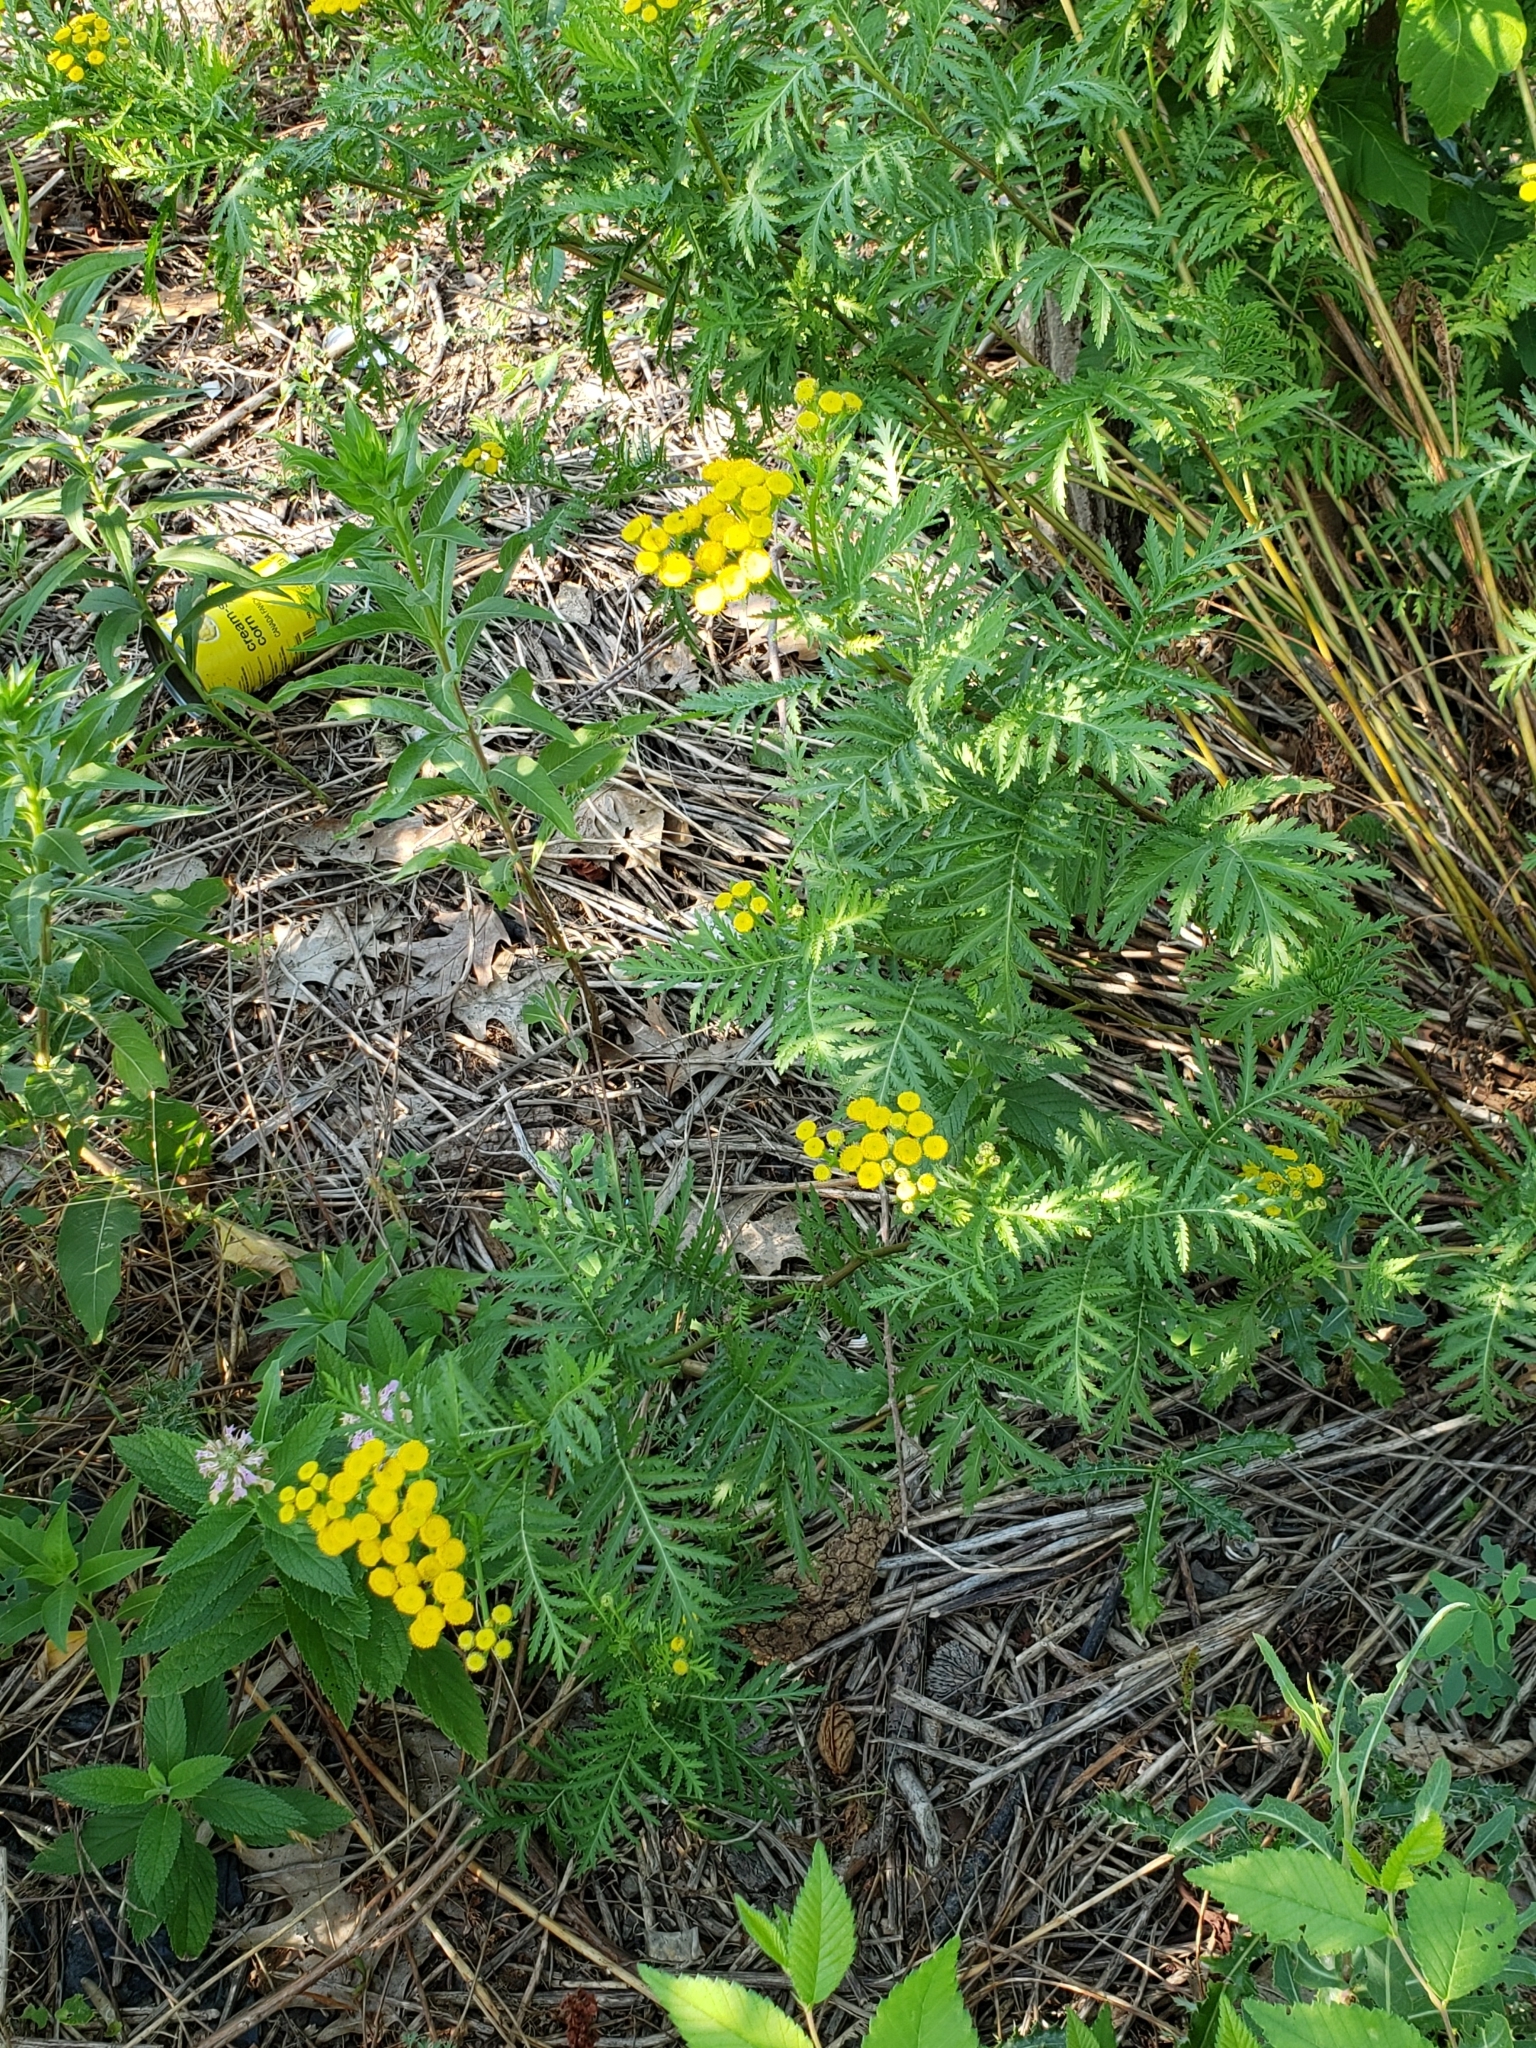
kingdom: Plantae
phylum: Tracheophyta
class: Magnoliopsida
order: Asterales
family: Asteraceae
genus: Tanacetum
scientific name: Tanacetum vulgare
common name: Common tansy
